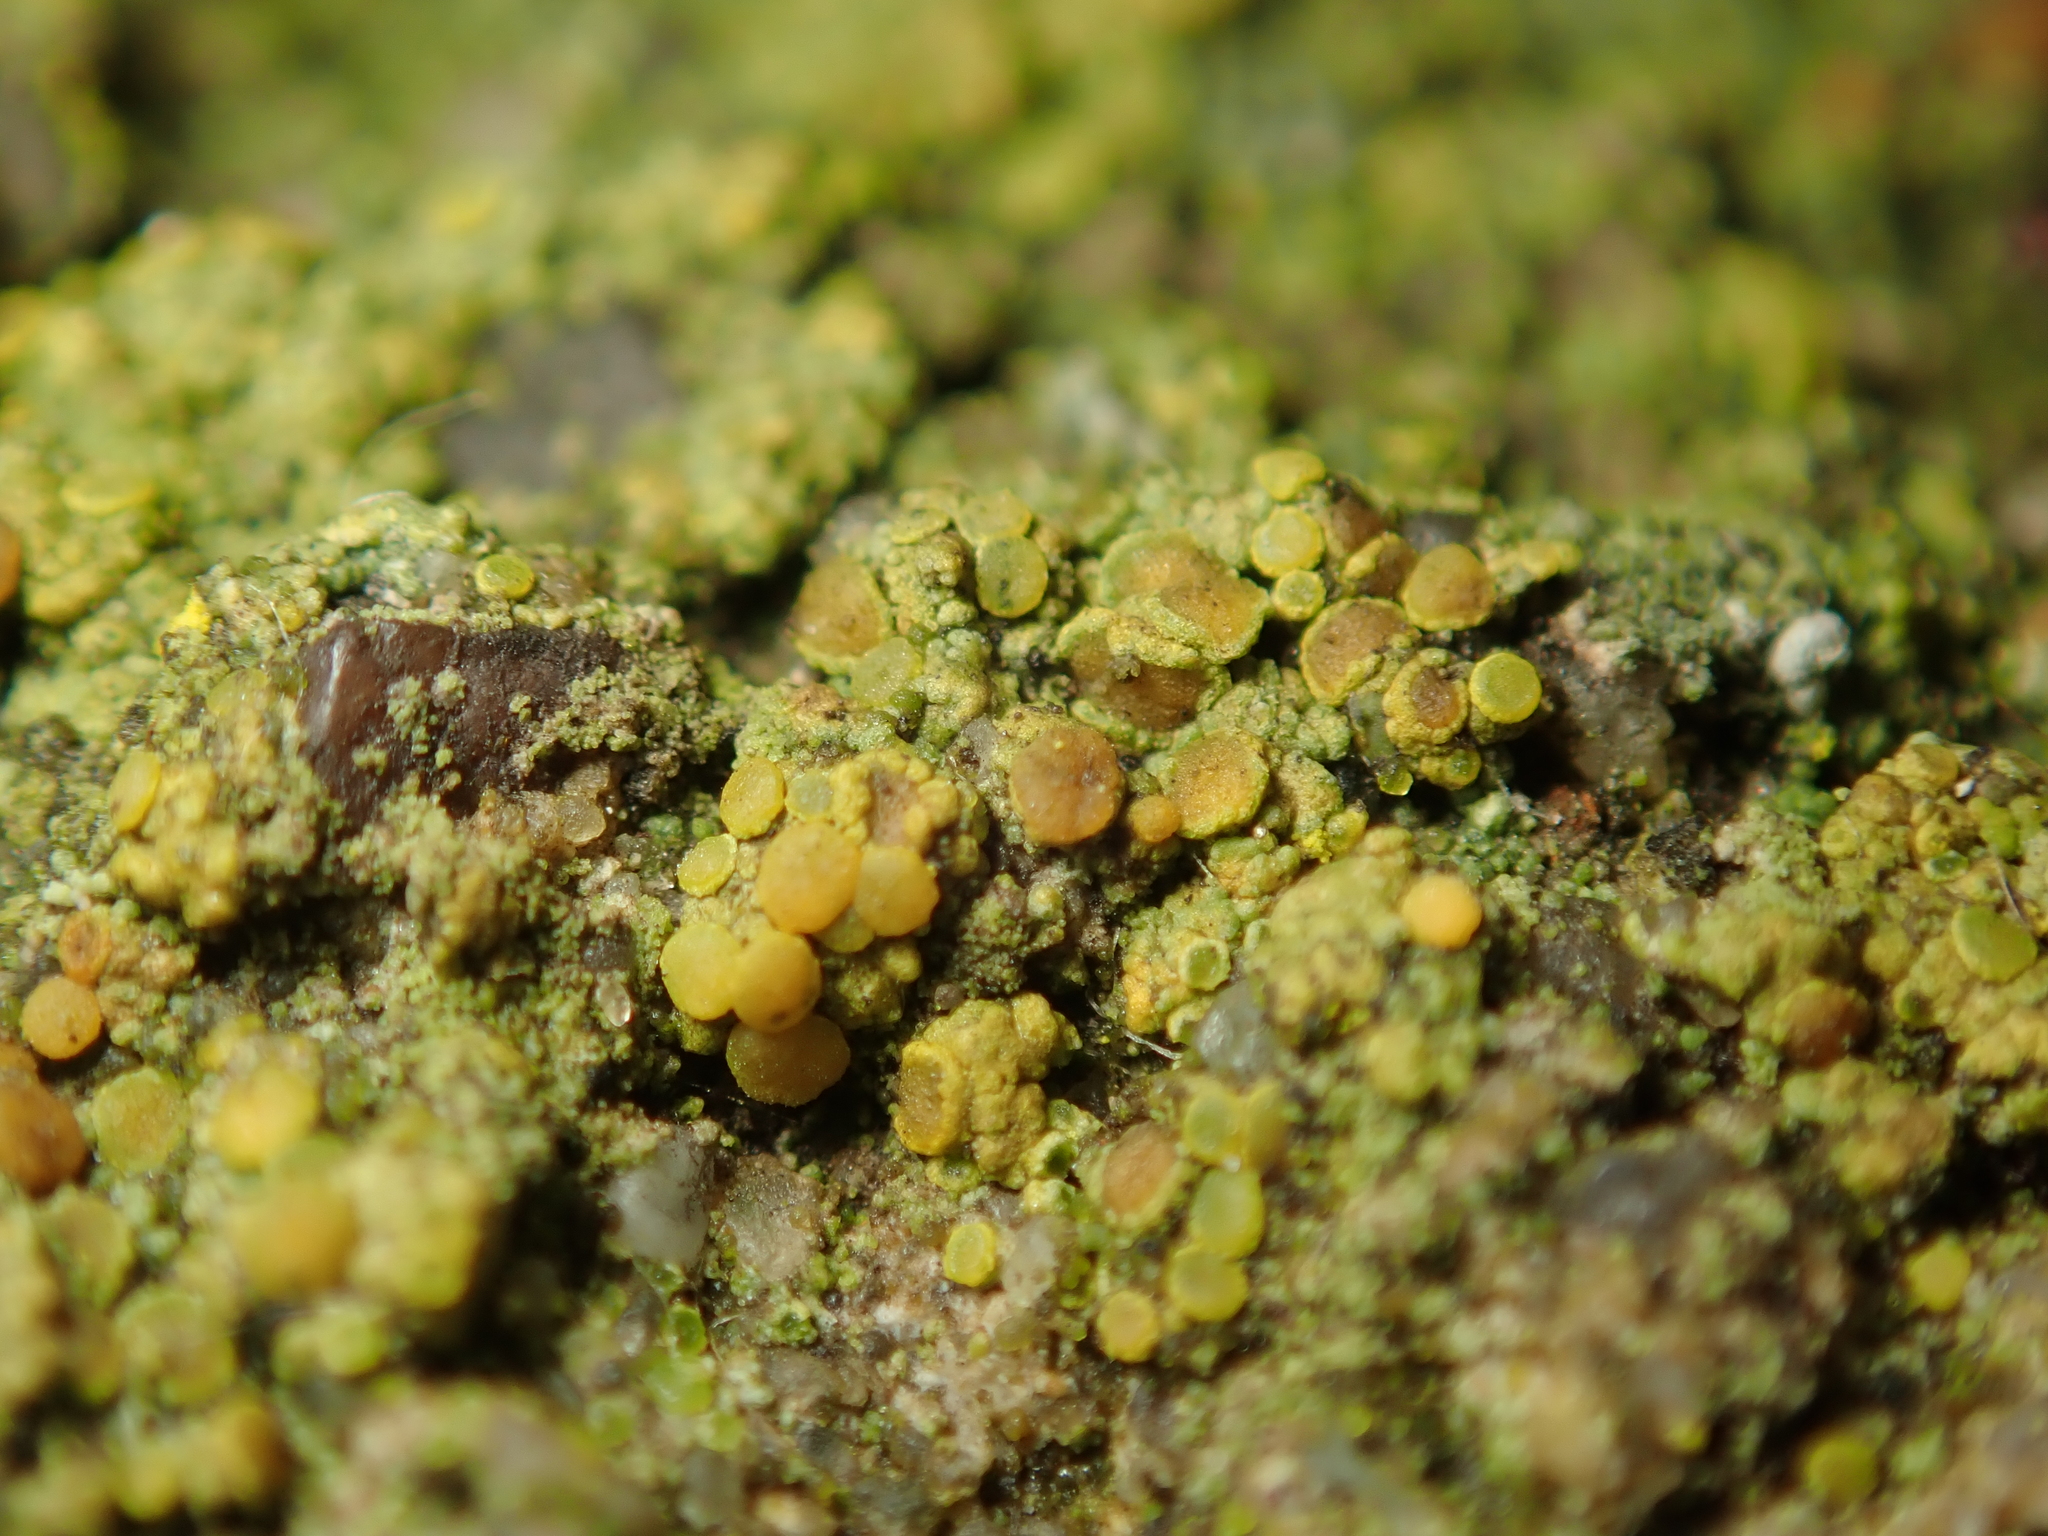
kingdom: Fungi
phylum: Ascomycota
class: Candelariomycetes
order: Candelariales
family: Candelariaceae
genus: Candelariella
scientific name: Candelariella vitellina
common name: Common goldspeck
